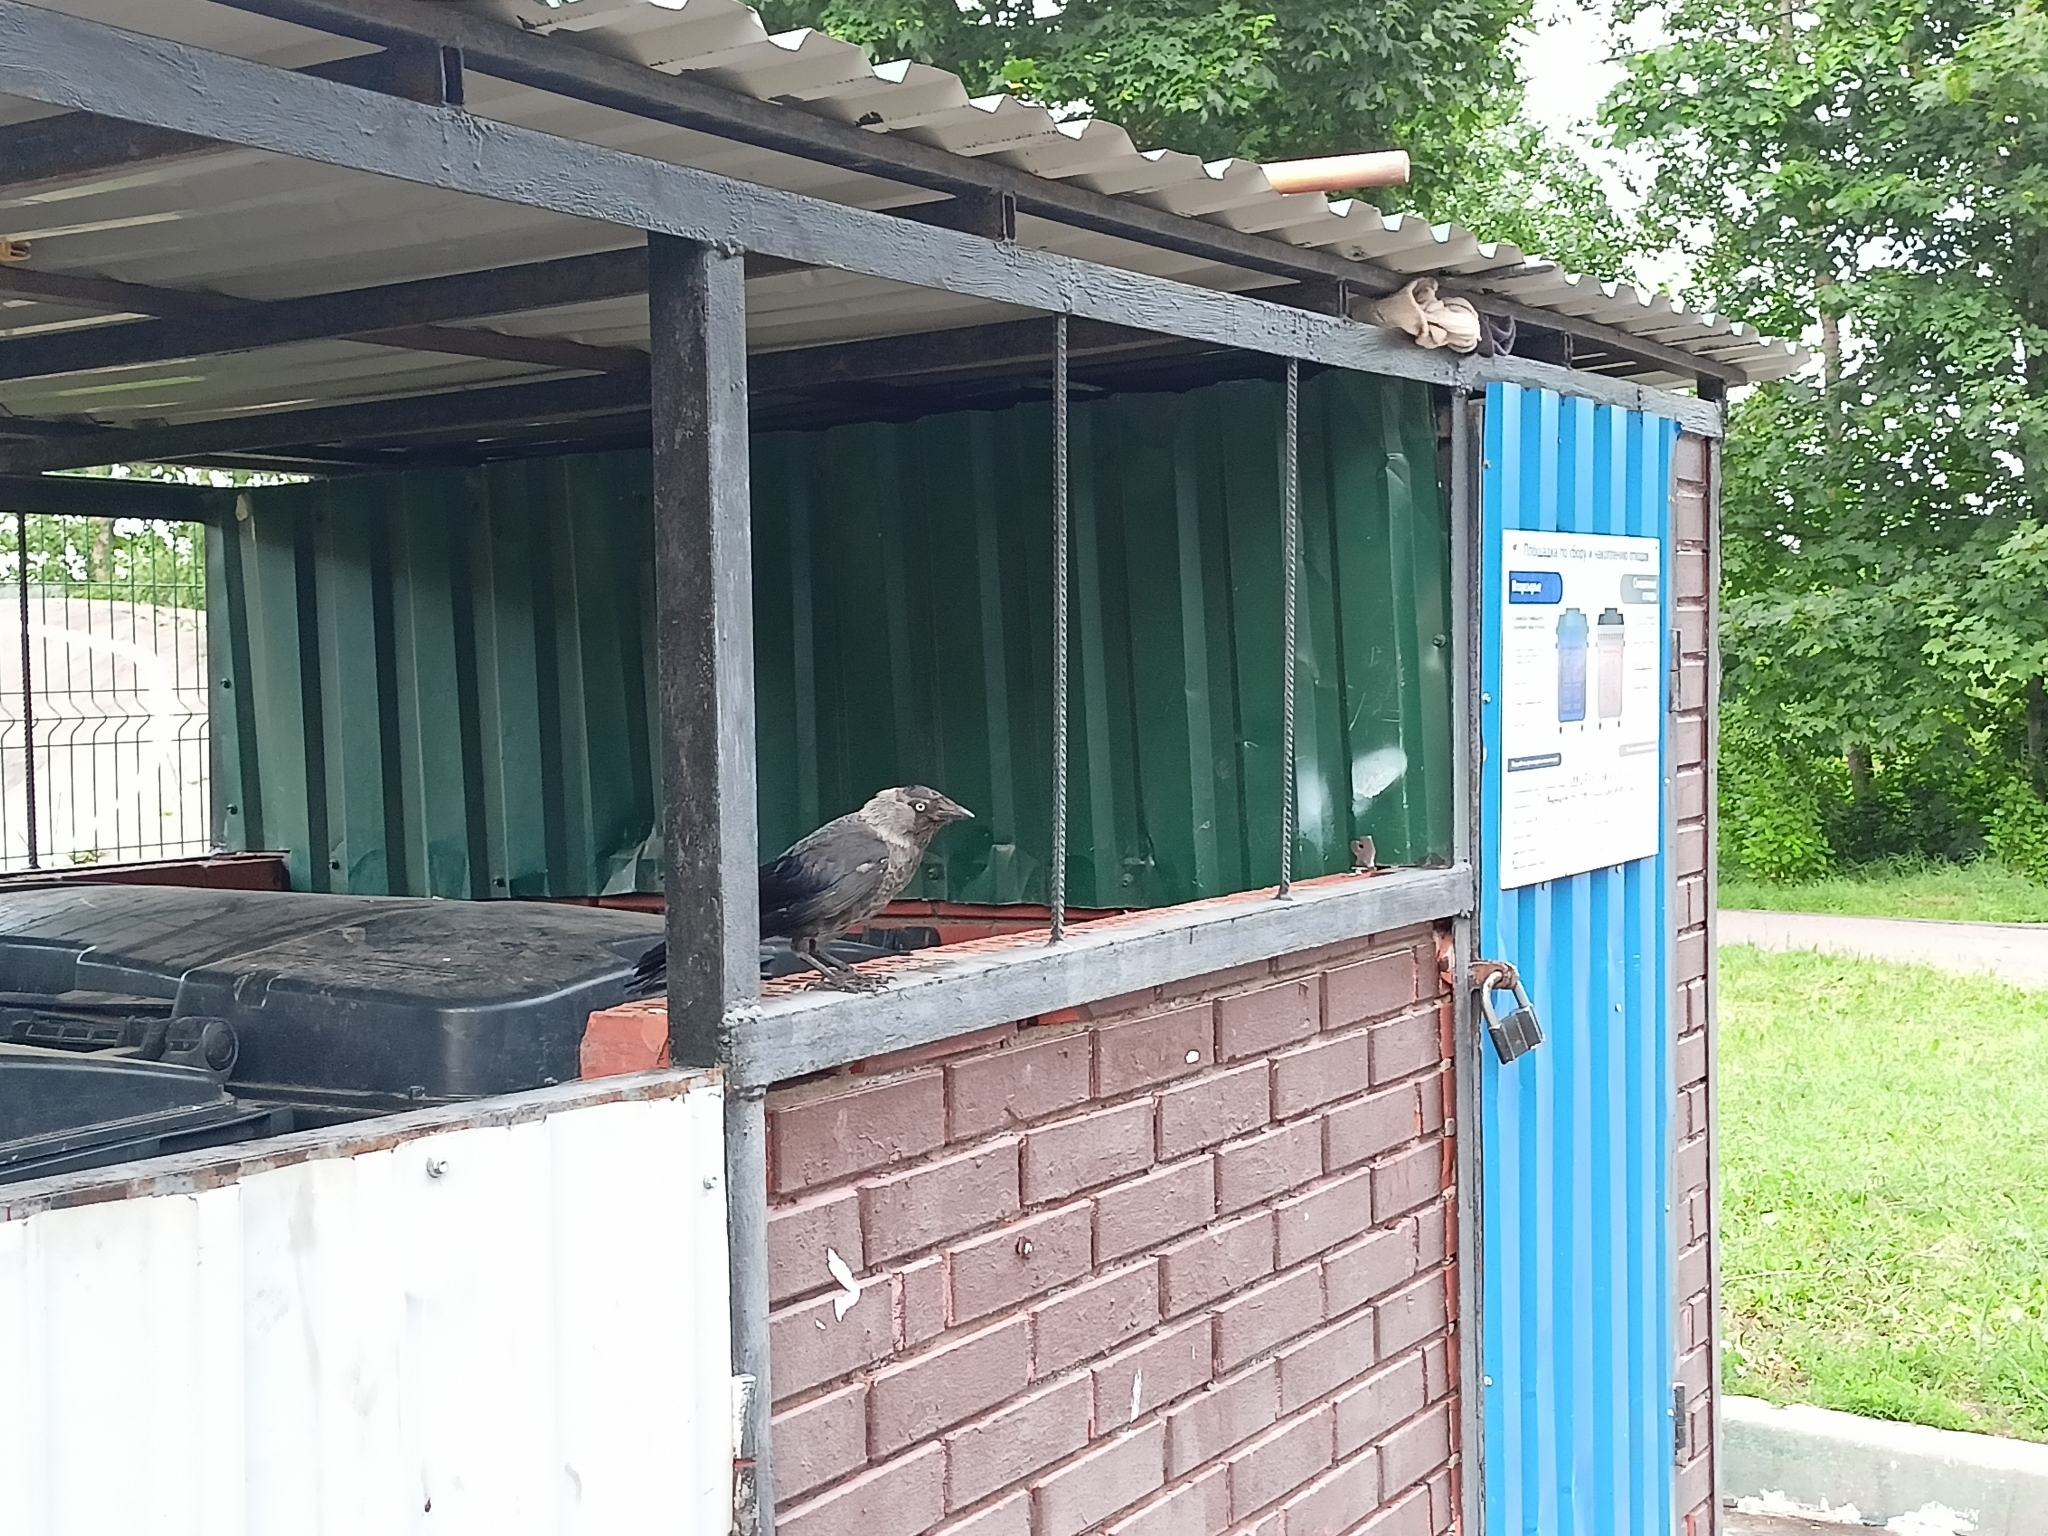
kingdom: Animalia
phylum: Chordata
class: Aves
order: Passeriformes
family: Corvidae
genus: Coloeus
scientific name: Coloeus monedula
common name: Western jackdaw
